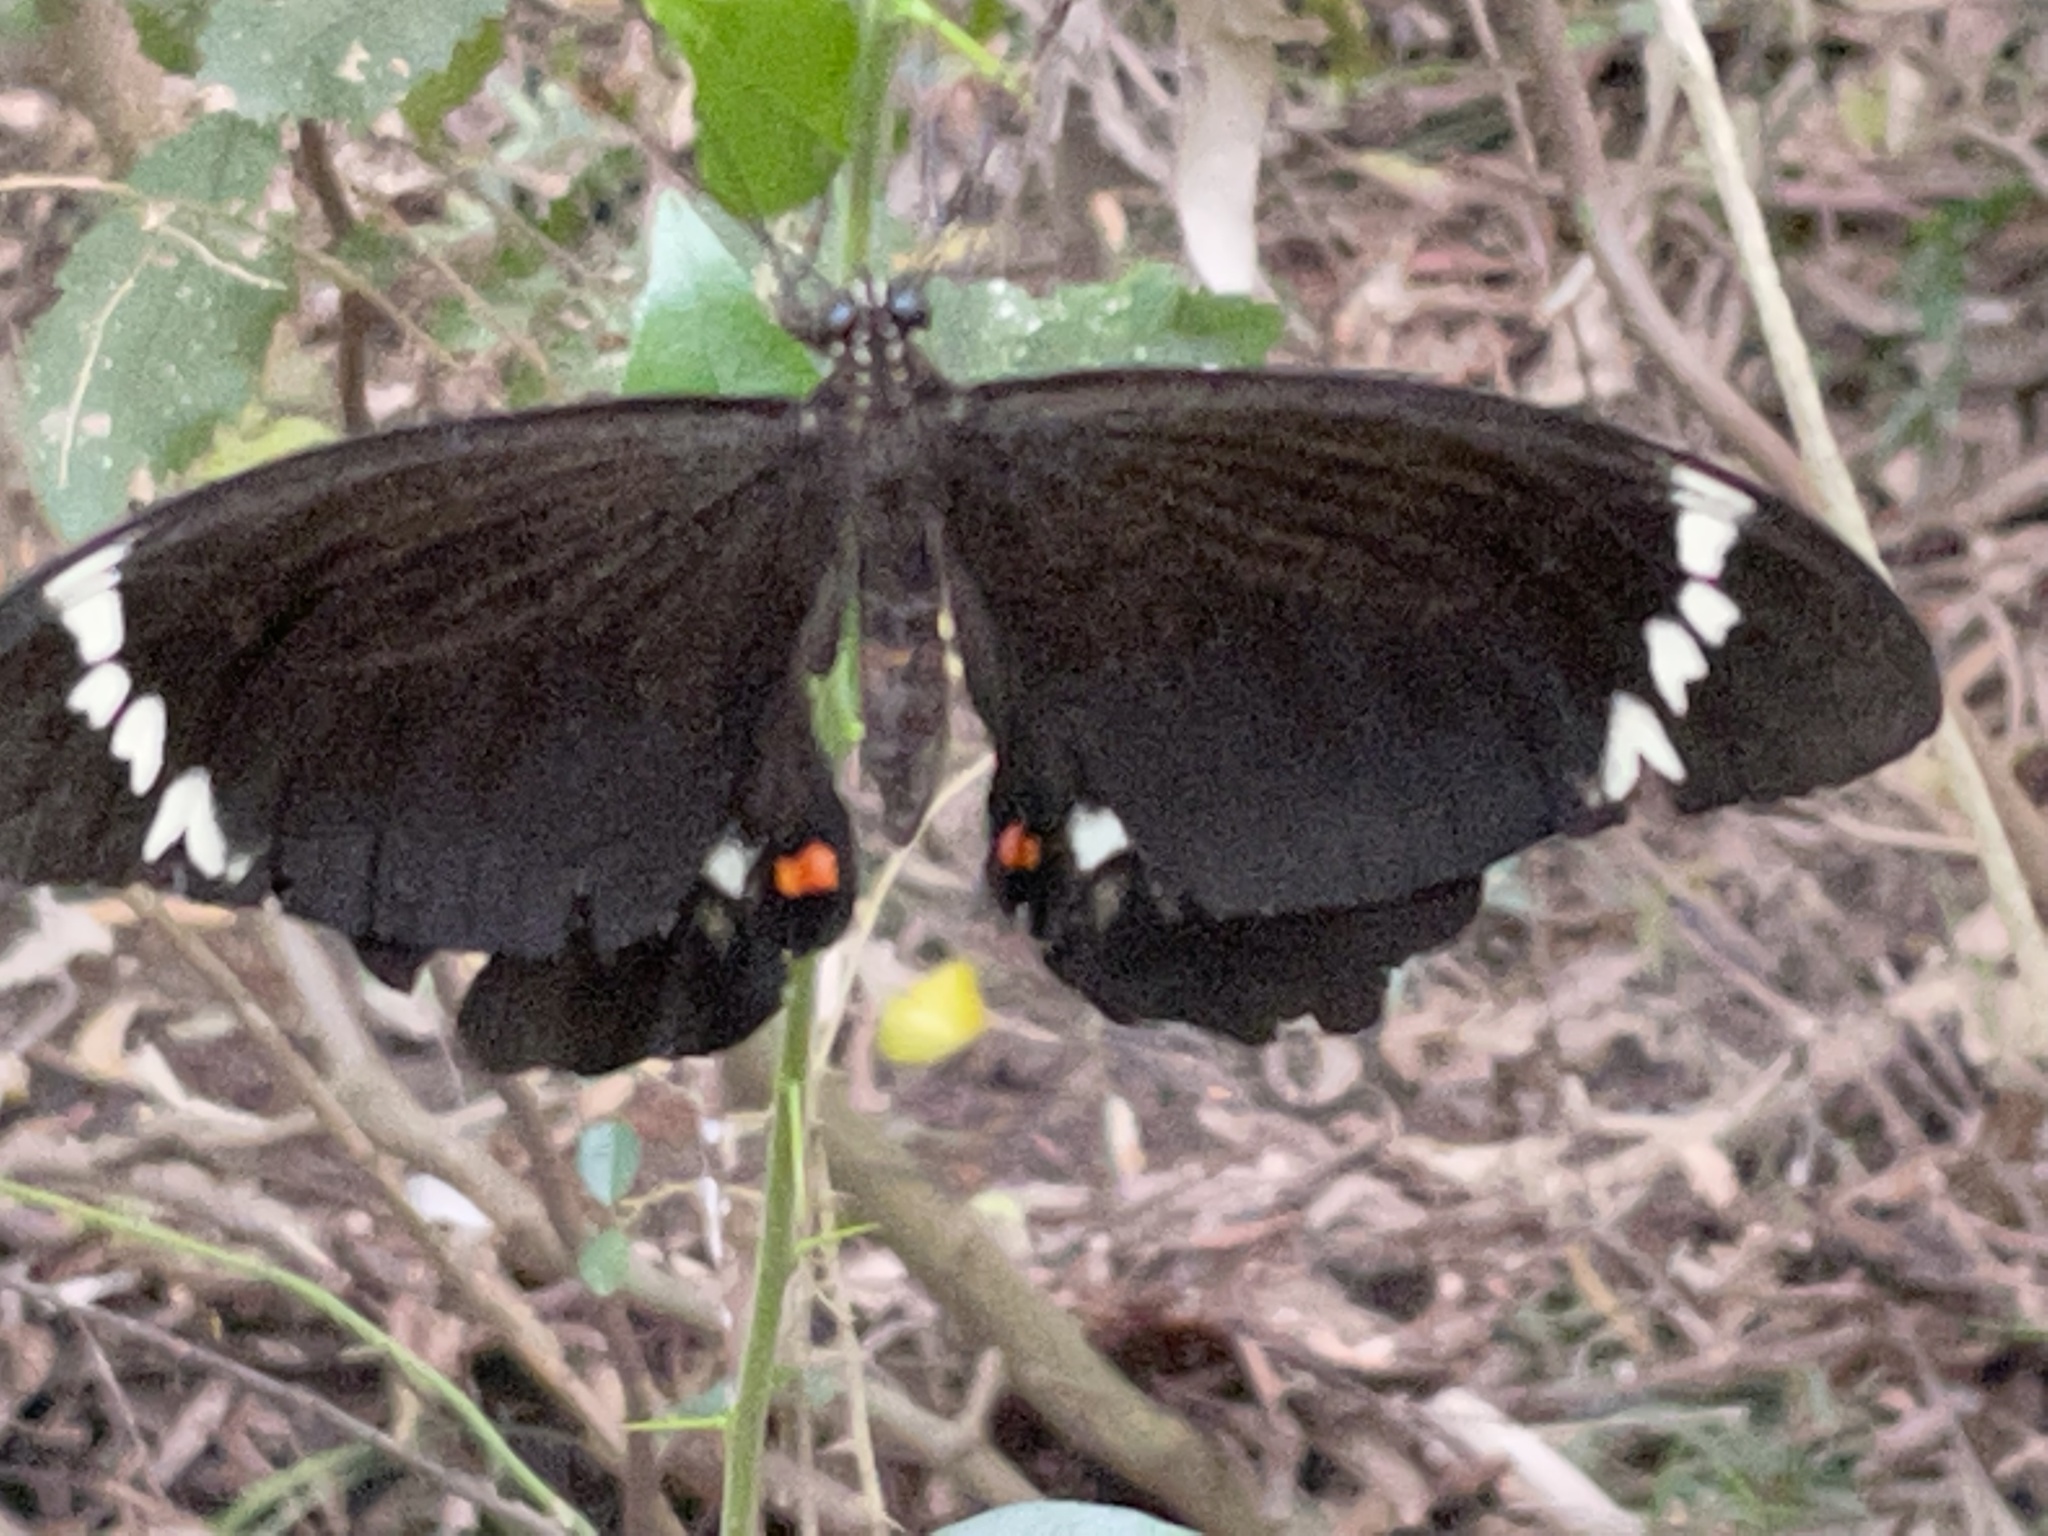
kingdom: Animalia
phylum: Arthropoda
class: Insecta
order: Lepidoptera
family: Papilionidae
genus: Papilio
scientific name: Papilio aegeus
